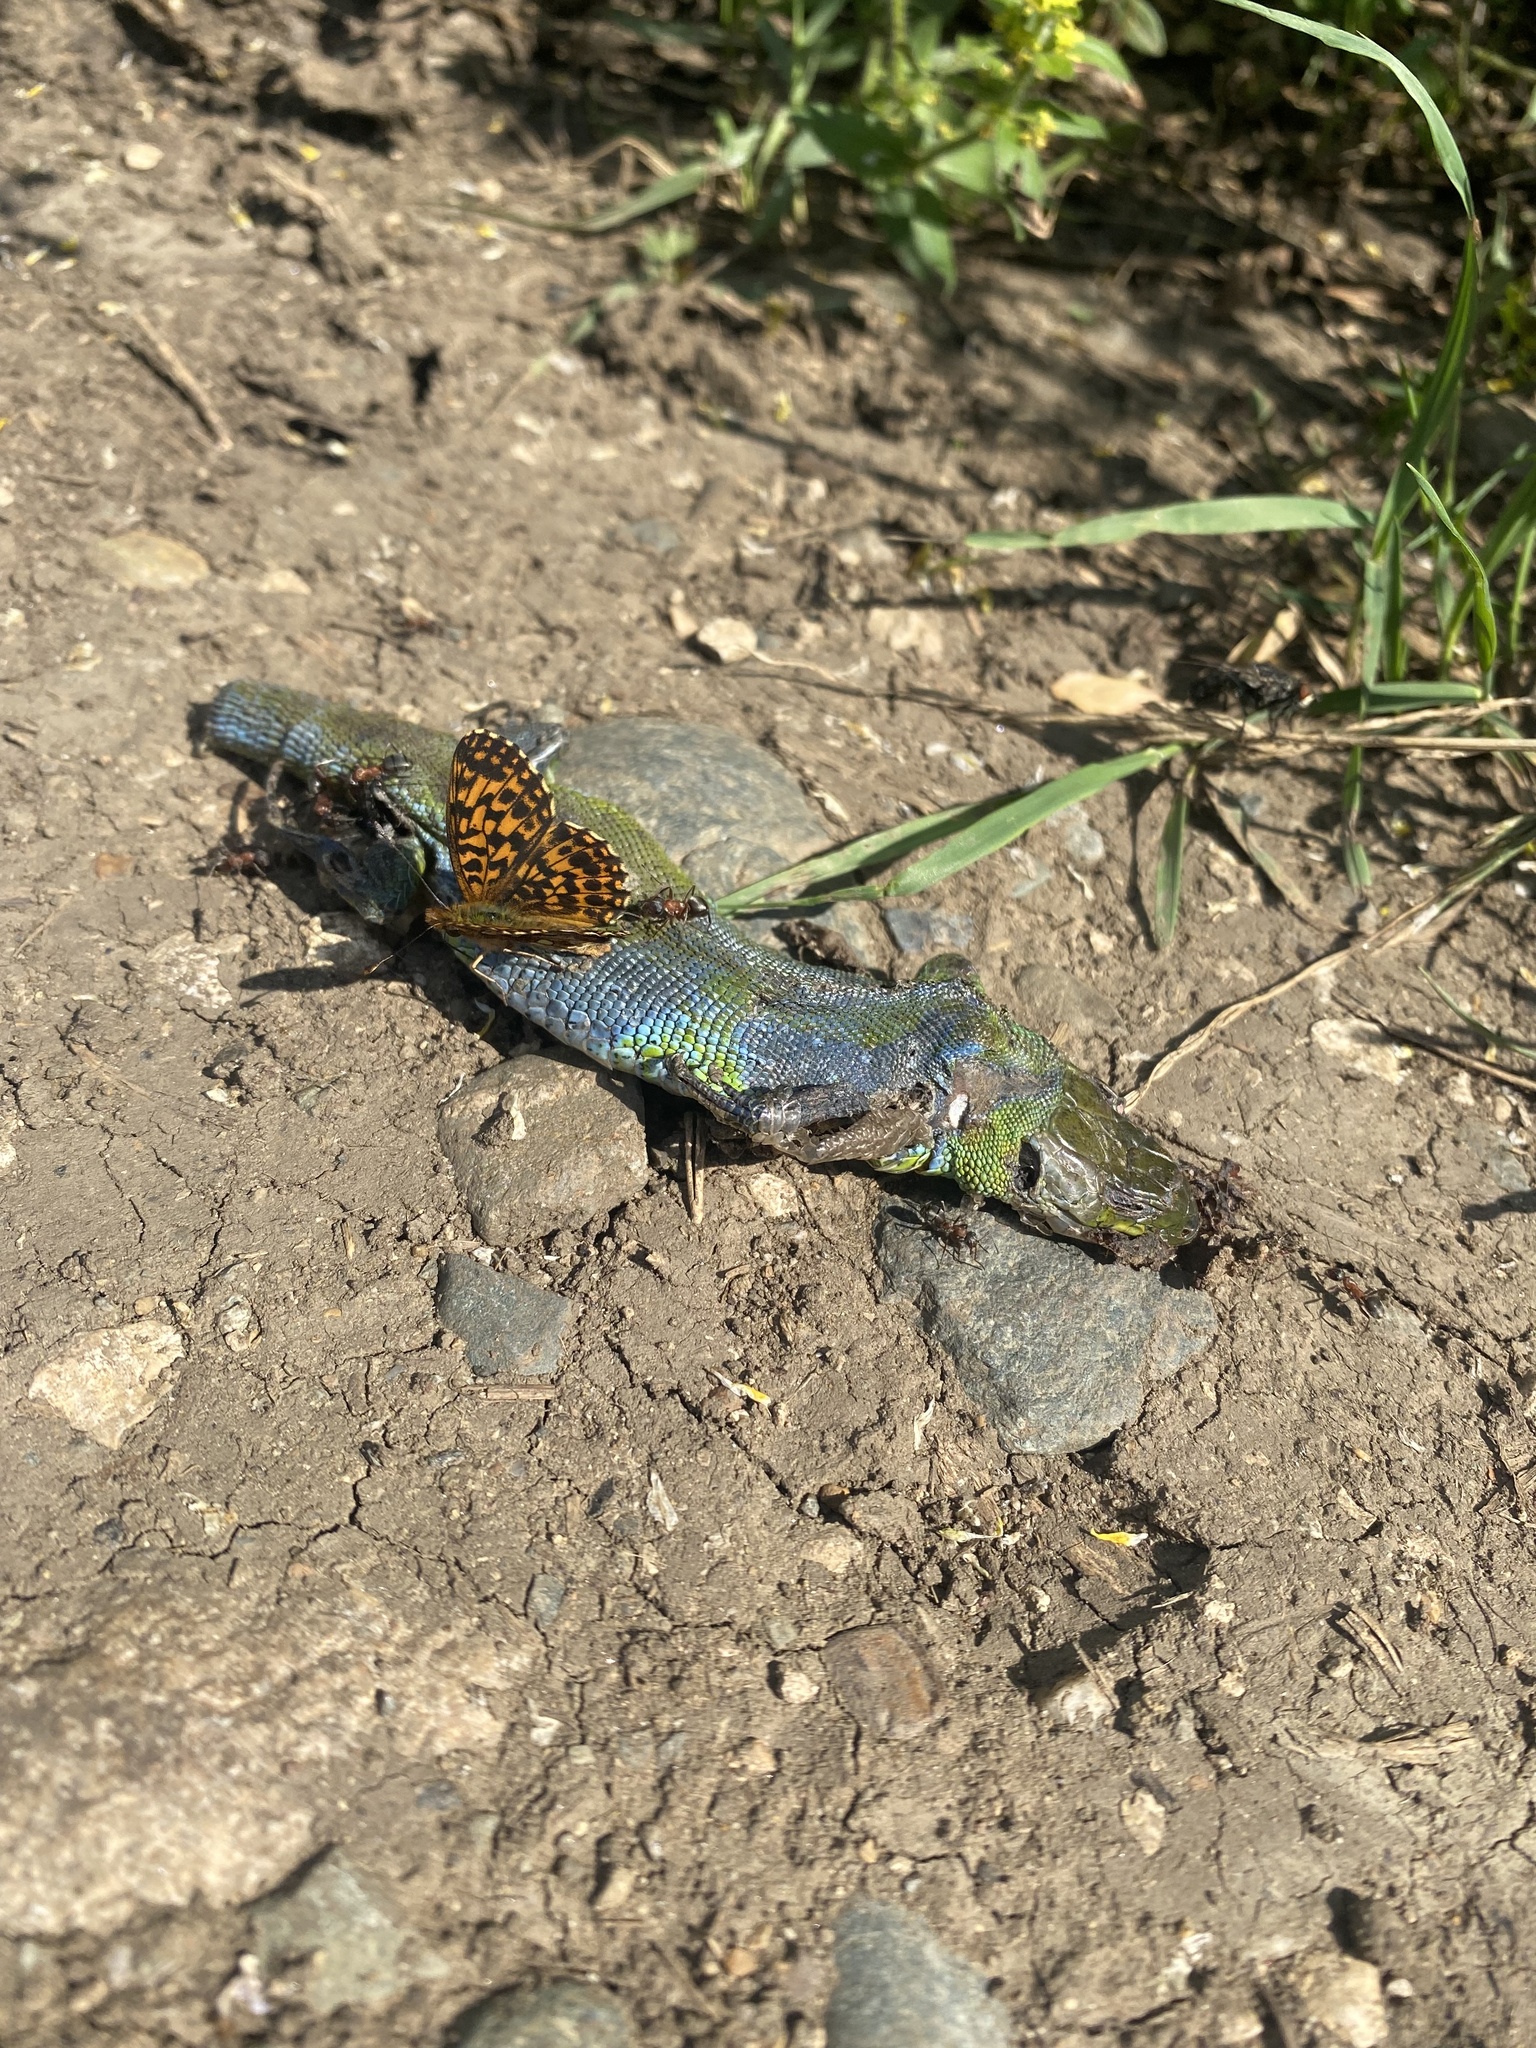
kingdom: Animalia
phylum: Arthropoda
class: Insecta
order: Lepidoptera
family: Nymphalidae
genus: Boloria
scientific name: Boloria dia
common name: Weaver's fritillary
